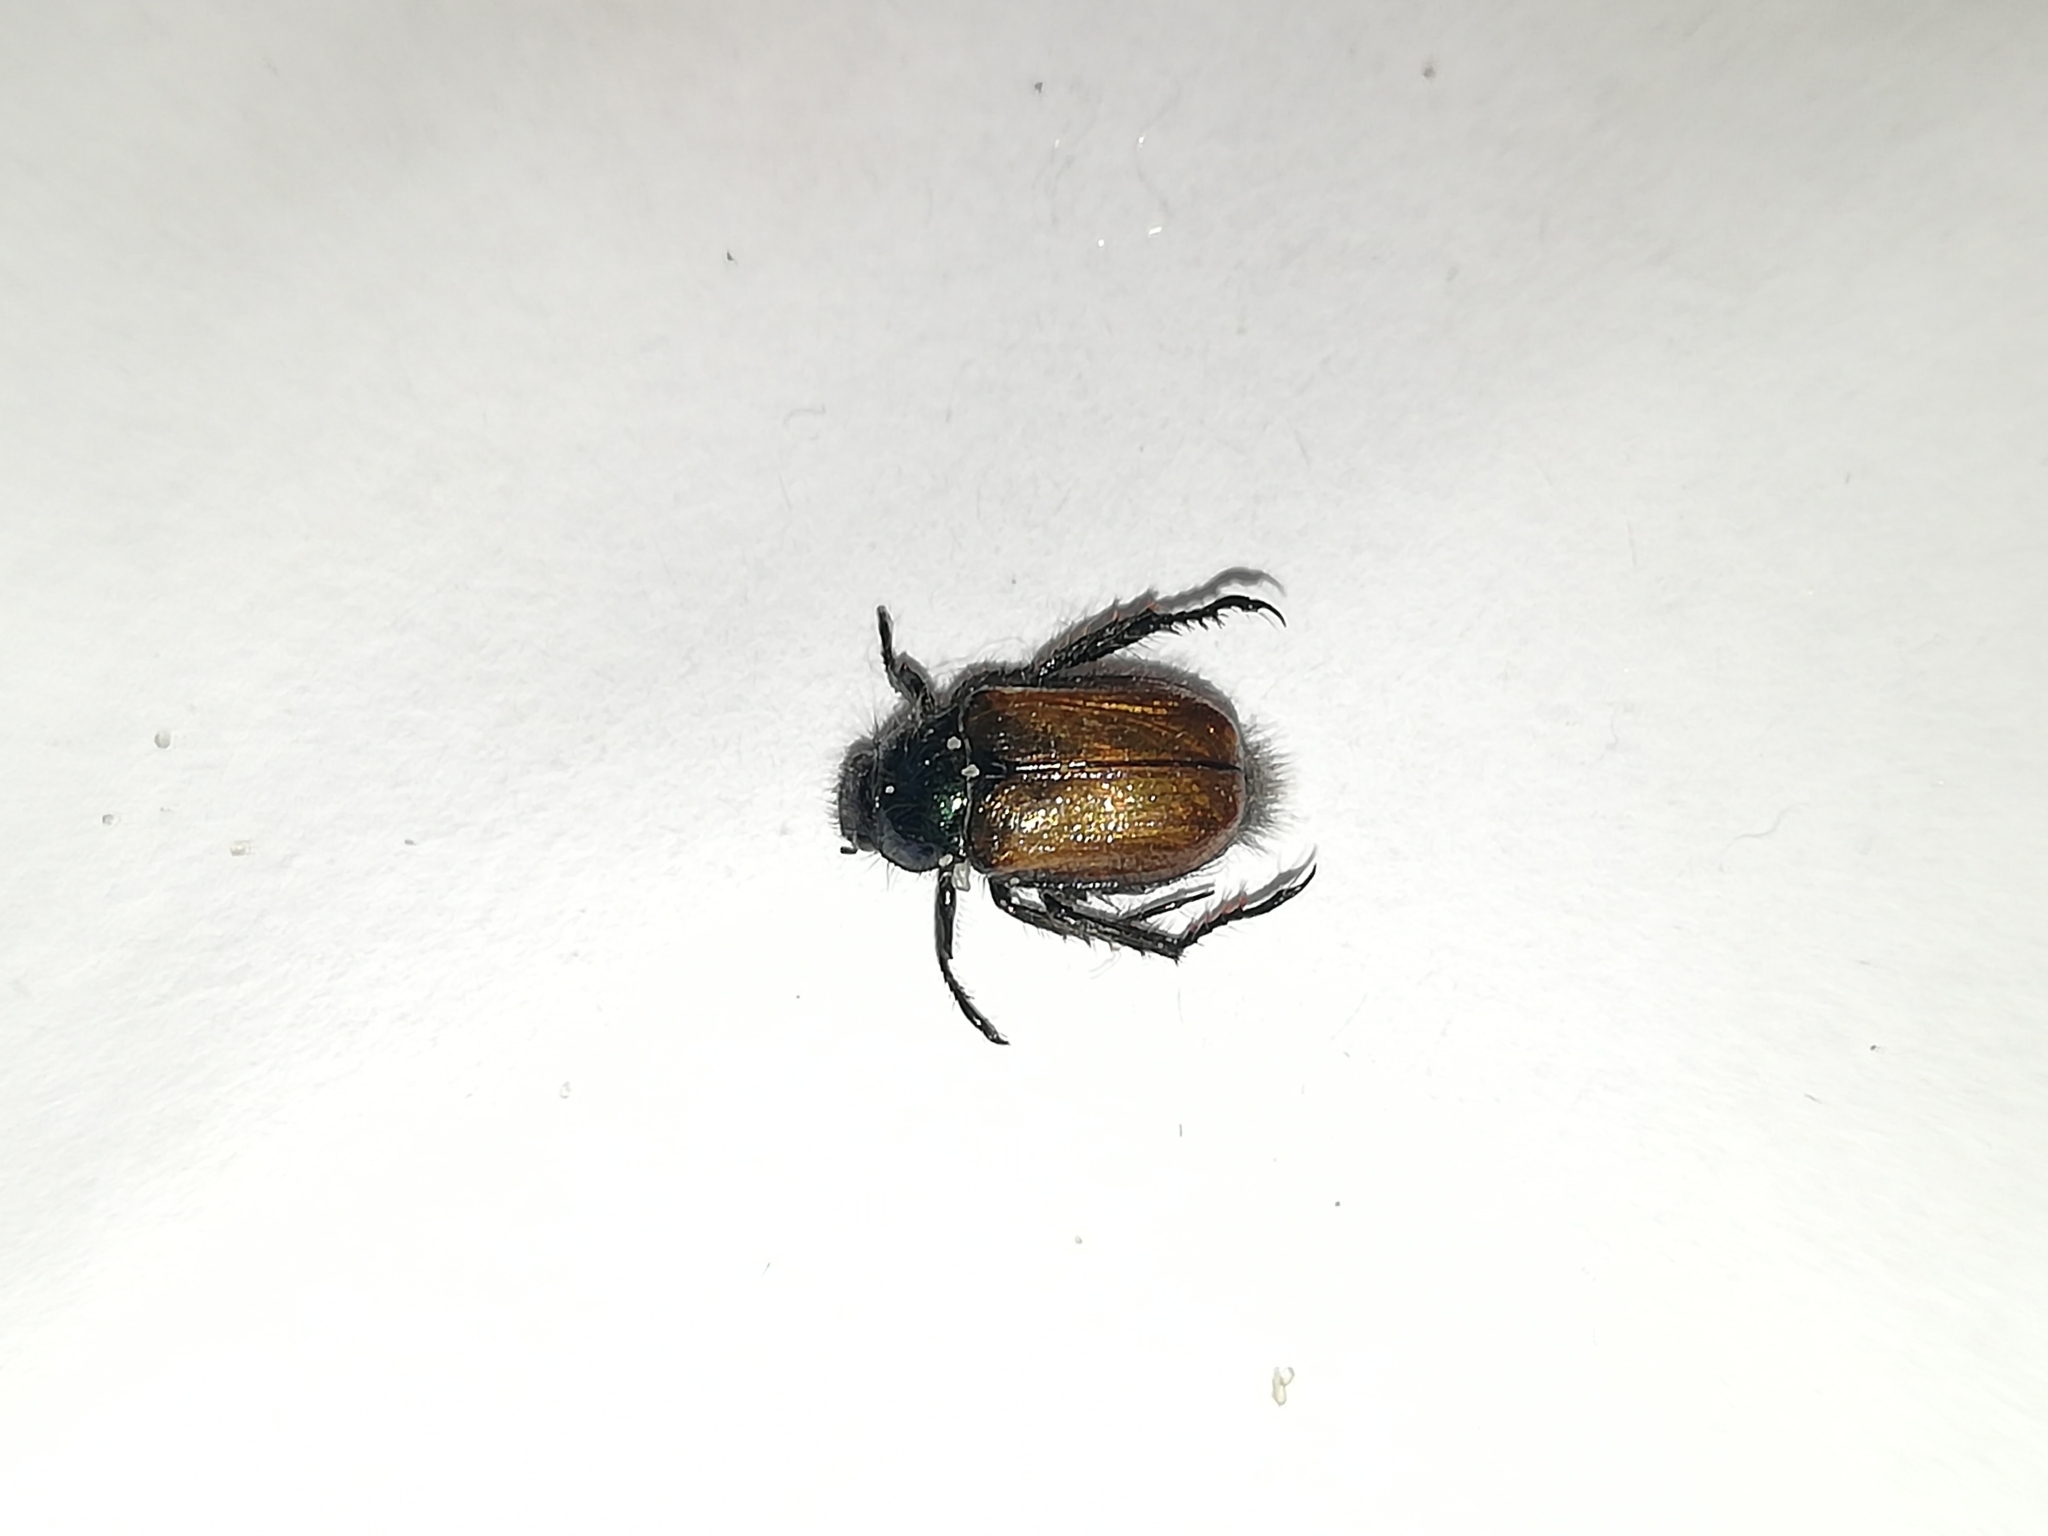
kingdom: Animalia
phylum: Arthropoda
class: Insecta
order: Coleoptera
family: Scarabaeidae
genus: Phyllopertha
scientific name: Phyllopertha horticola
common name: Garden chafer
